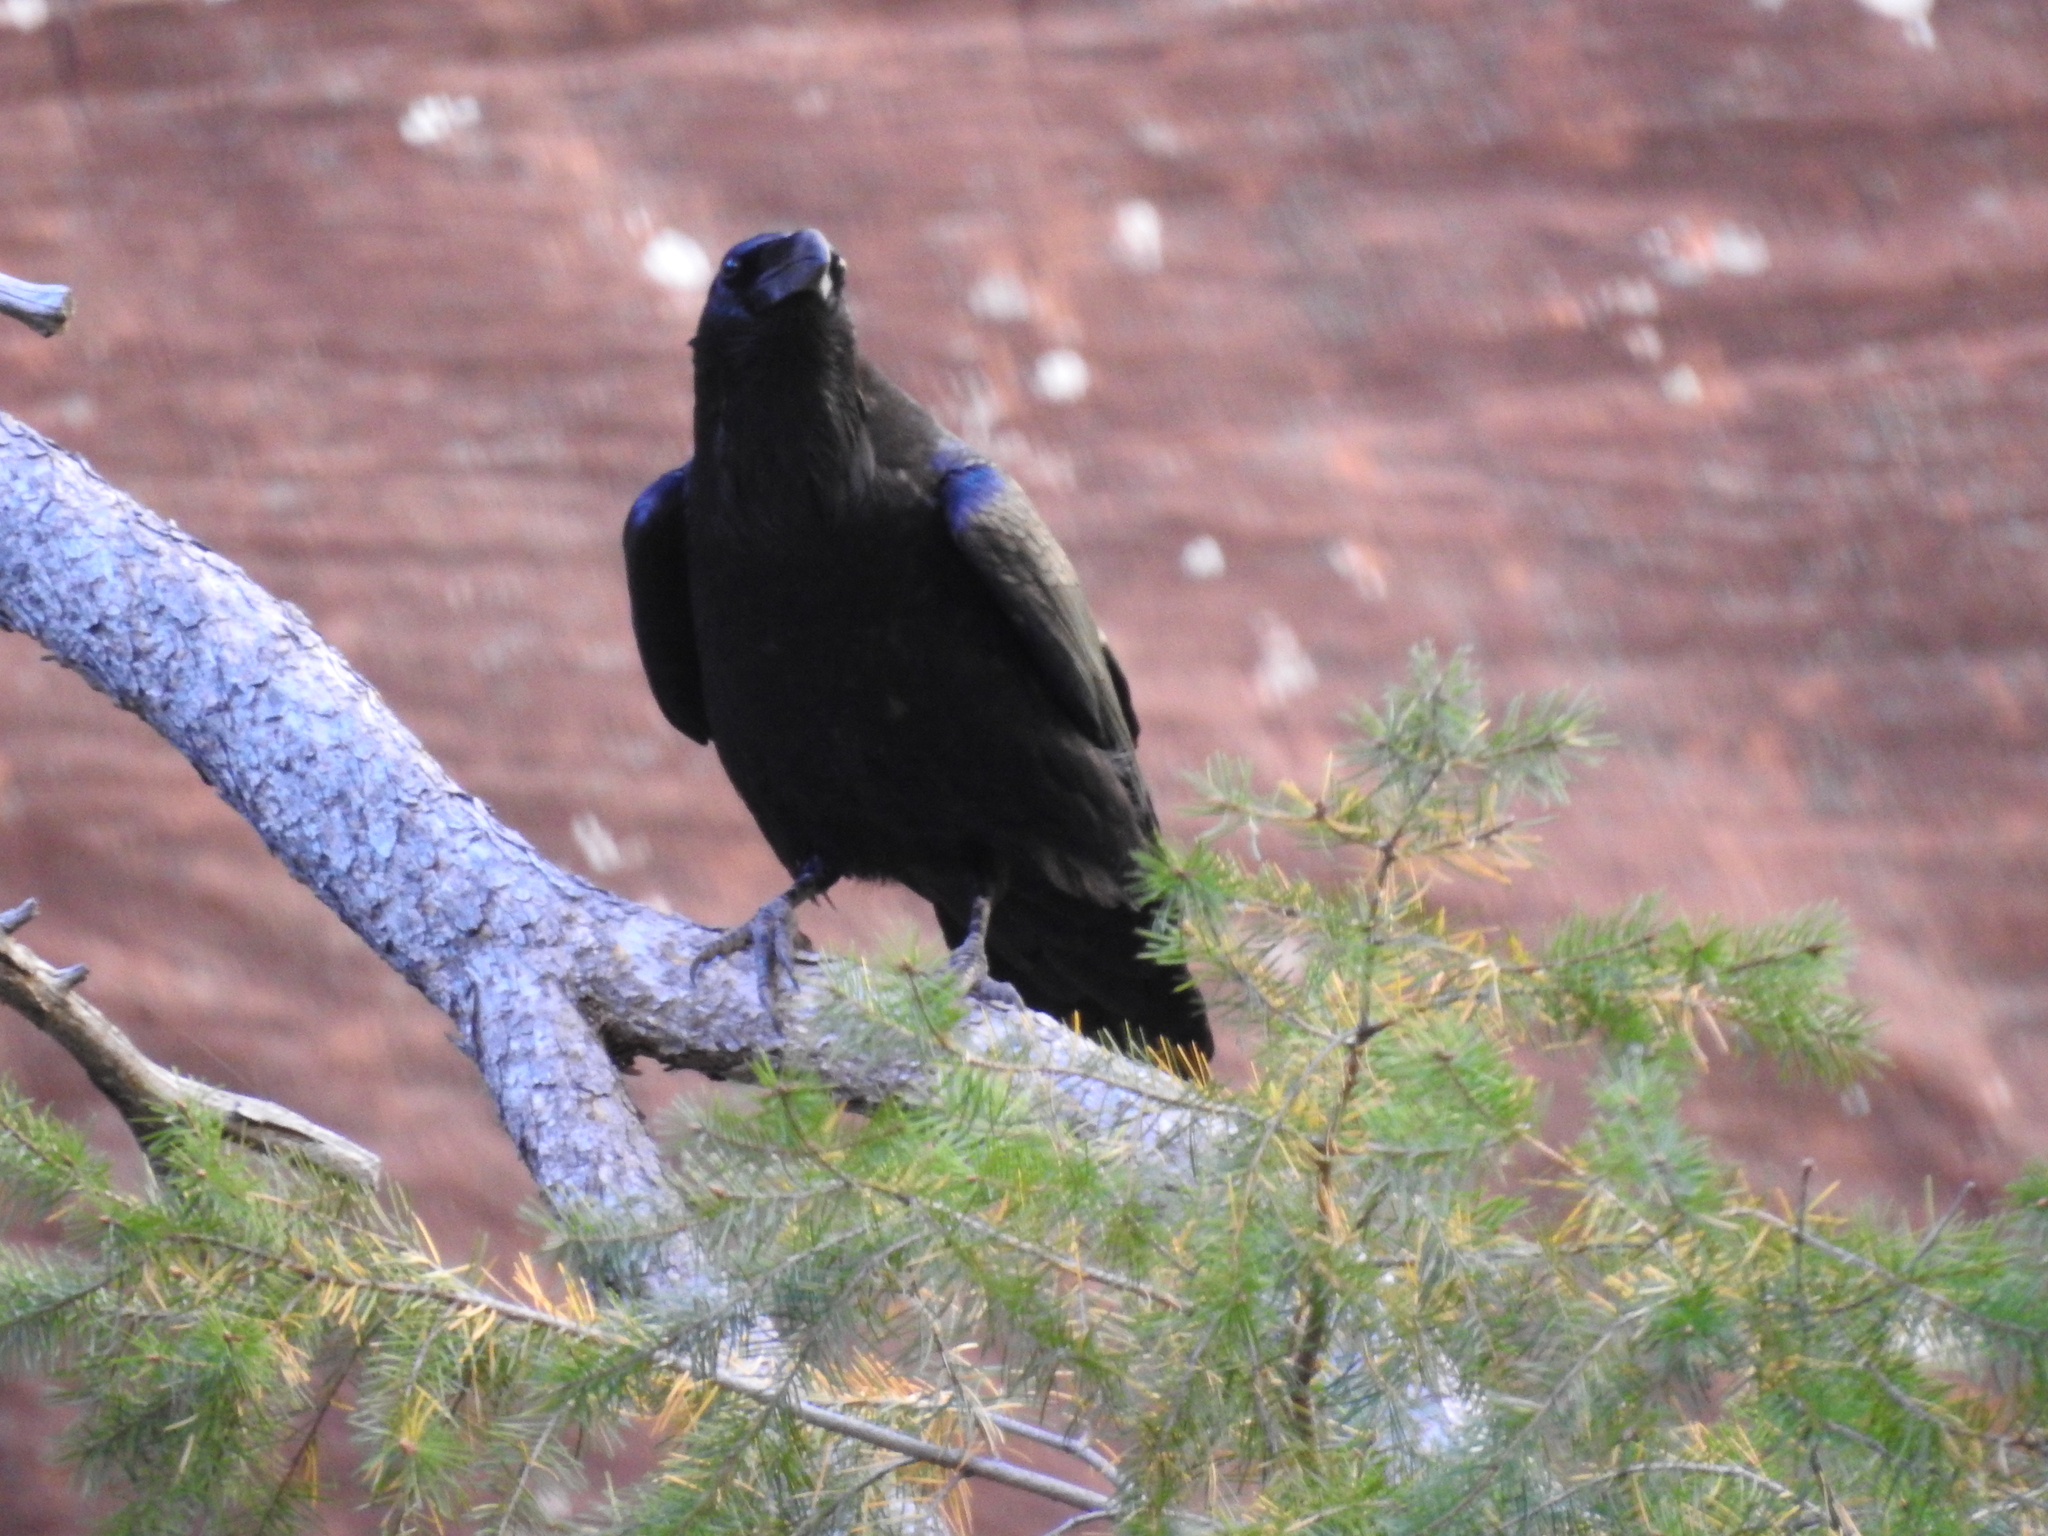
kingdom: Animalia
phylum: Chordata
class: Aves
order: Passeriformes
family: Corvidae
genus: Corvus
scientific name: Corvus corax
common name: Common raven
